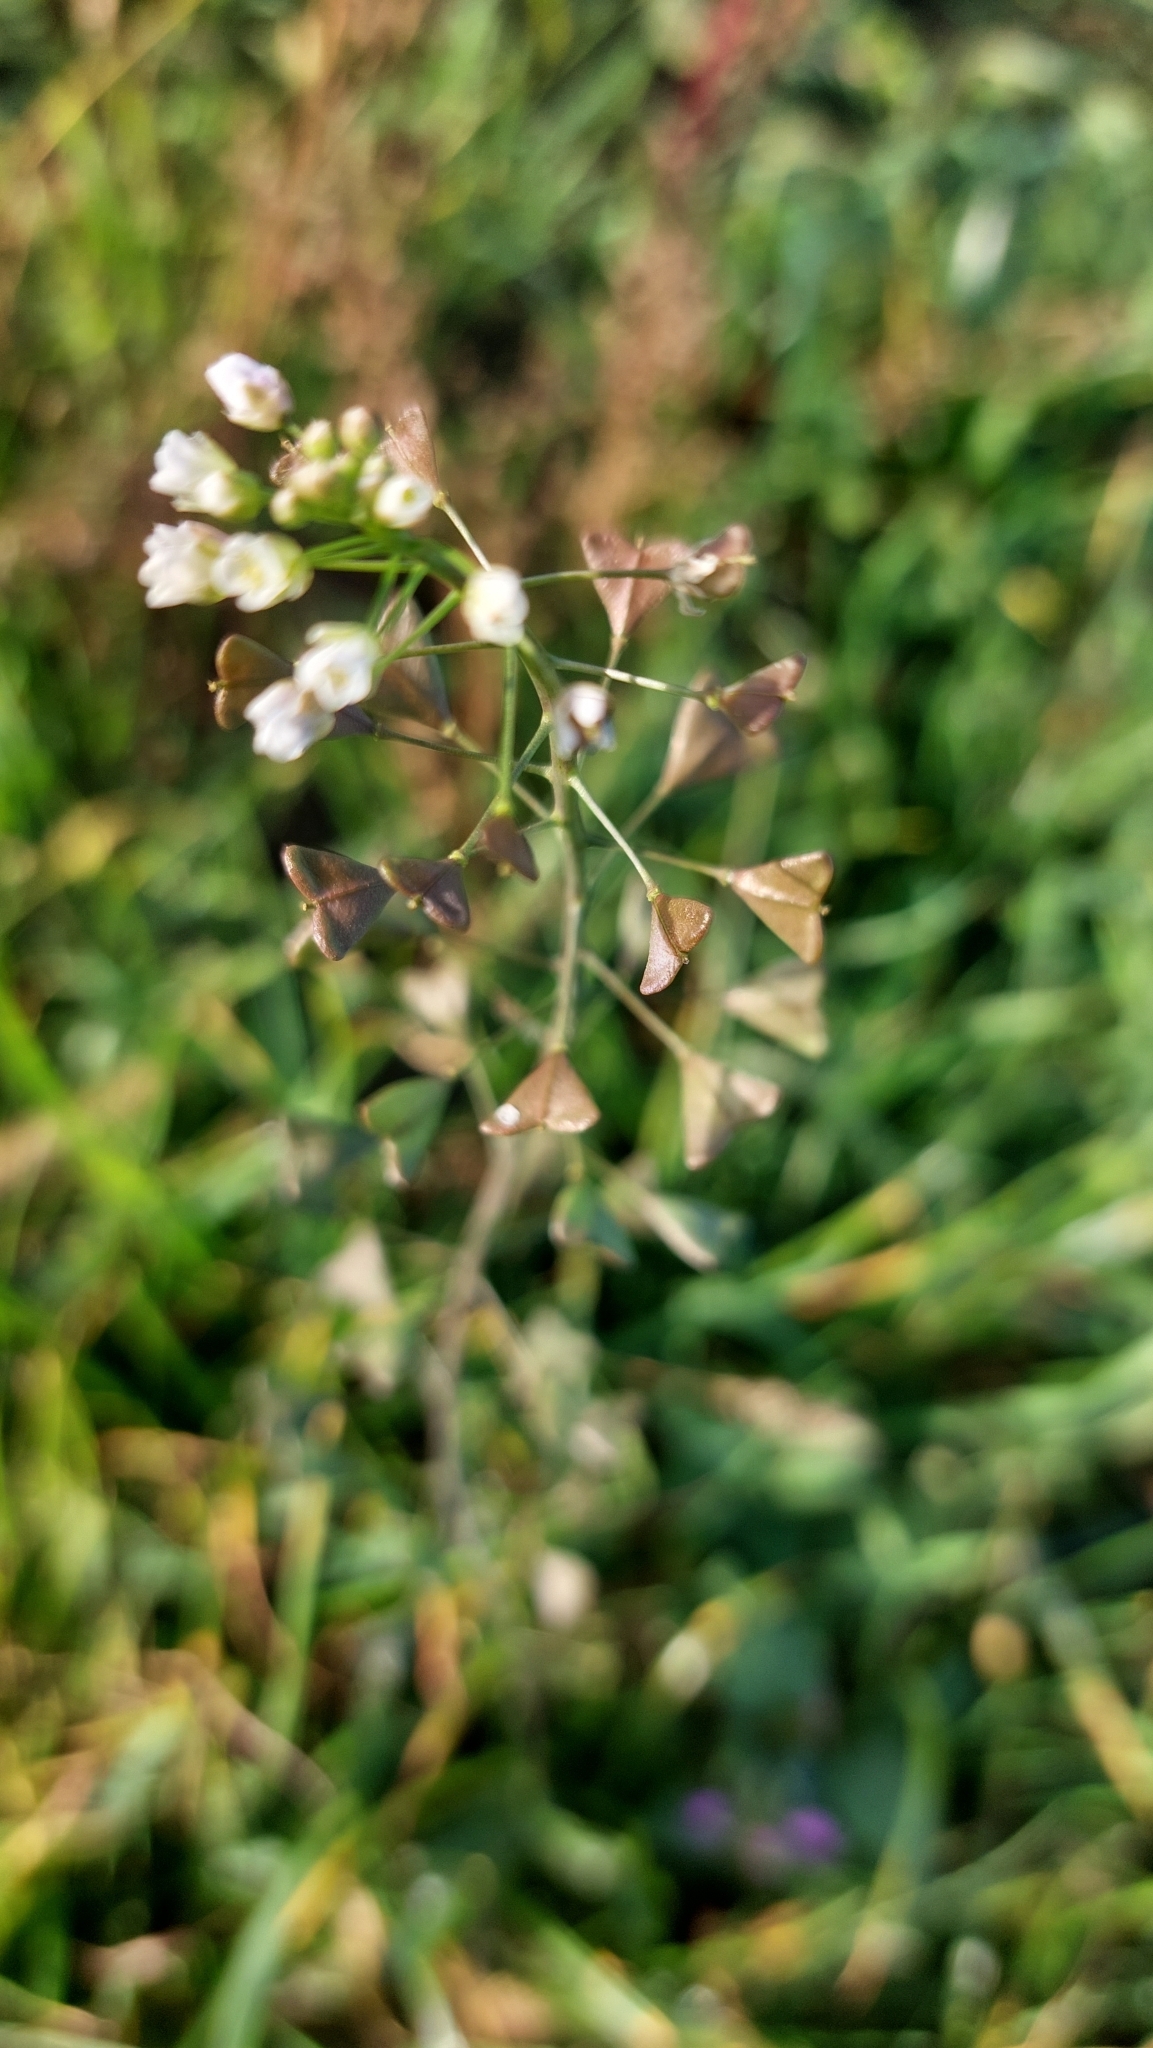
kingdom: Plantae
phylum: Tracheophyta
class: Magnoliopsida
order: Brassicales
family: Brassicaceae
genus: Capsella
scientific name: Capsella bursa-pastoris
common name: Shepherd's purse
